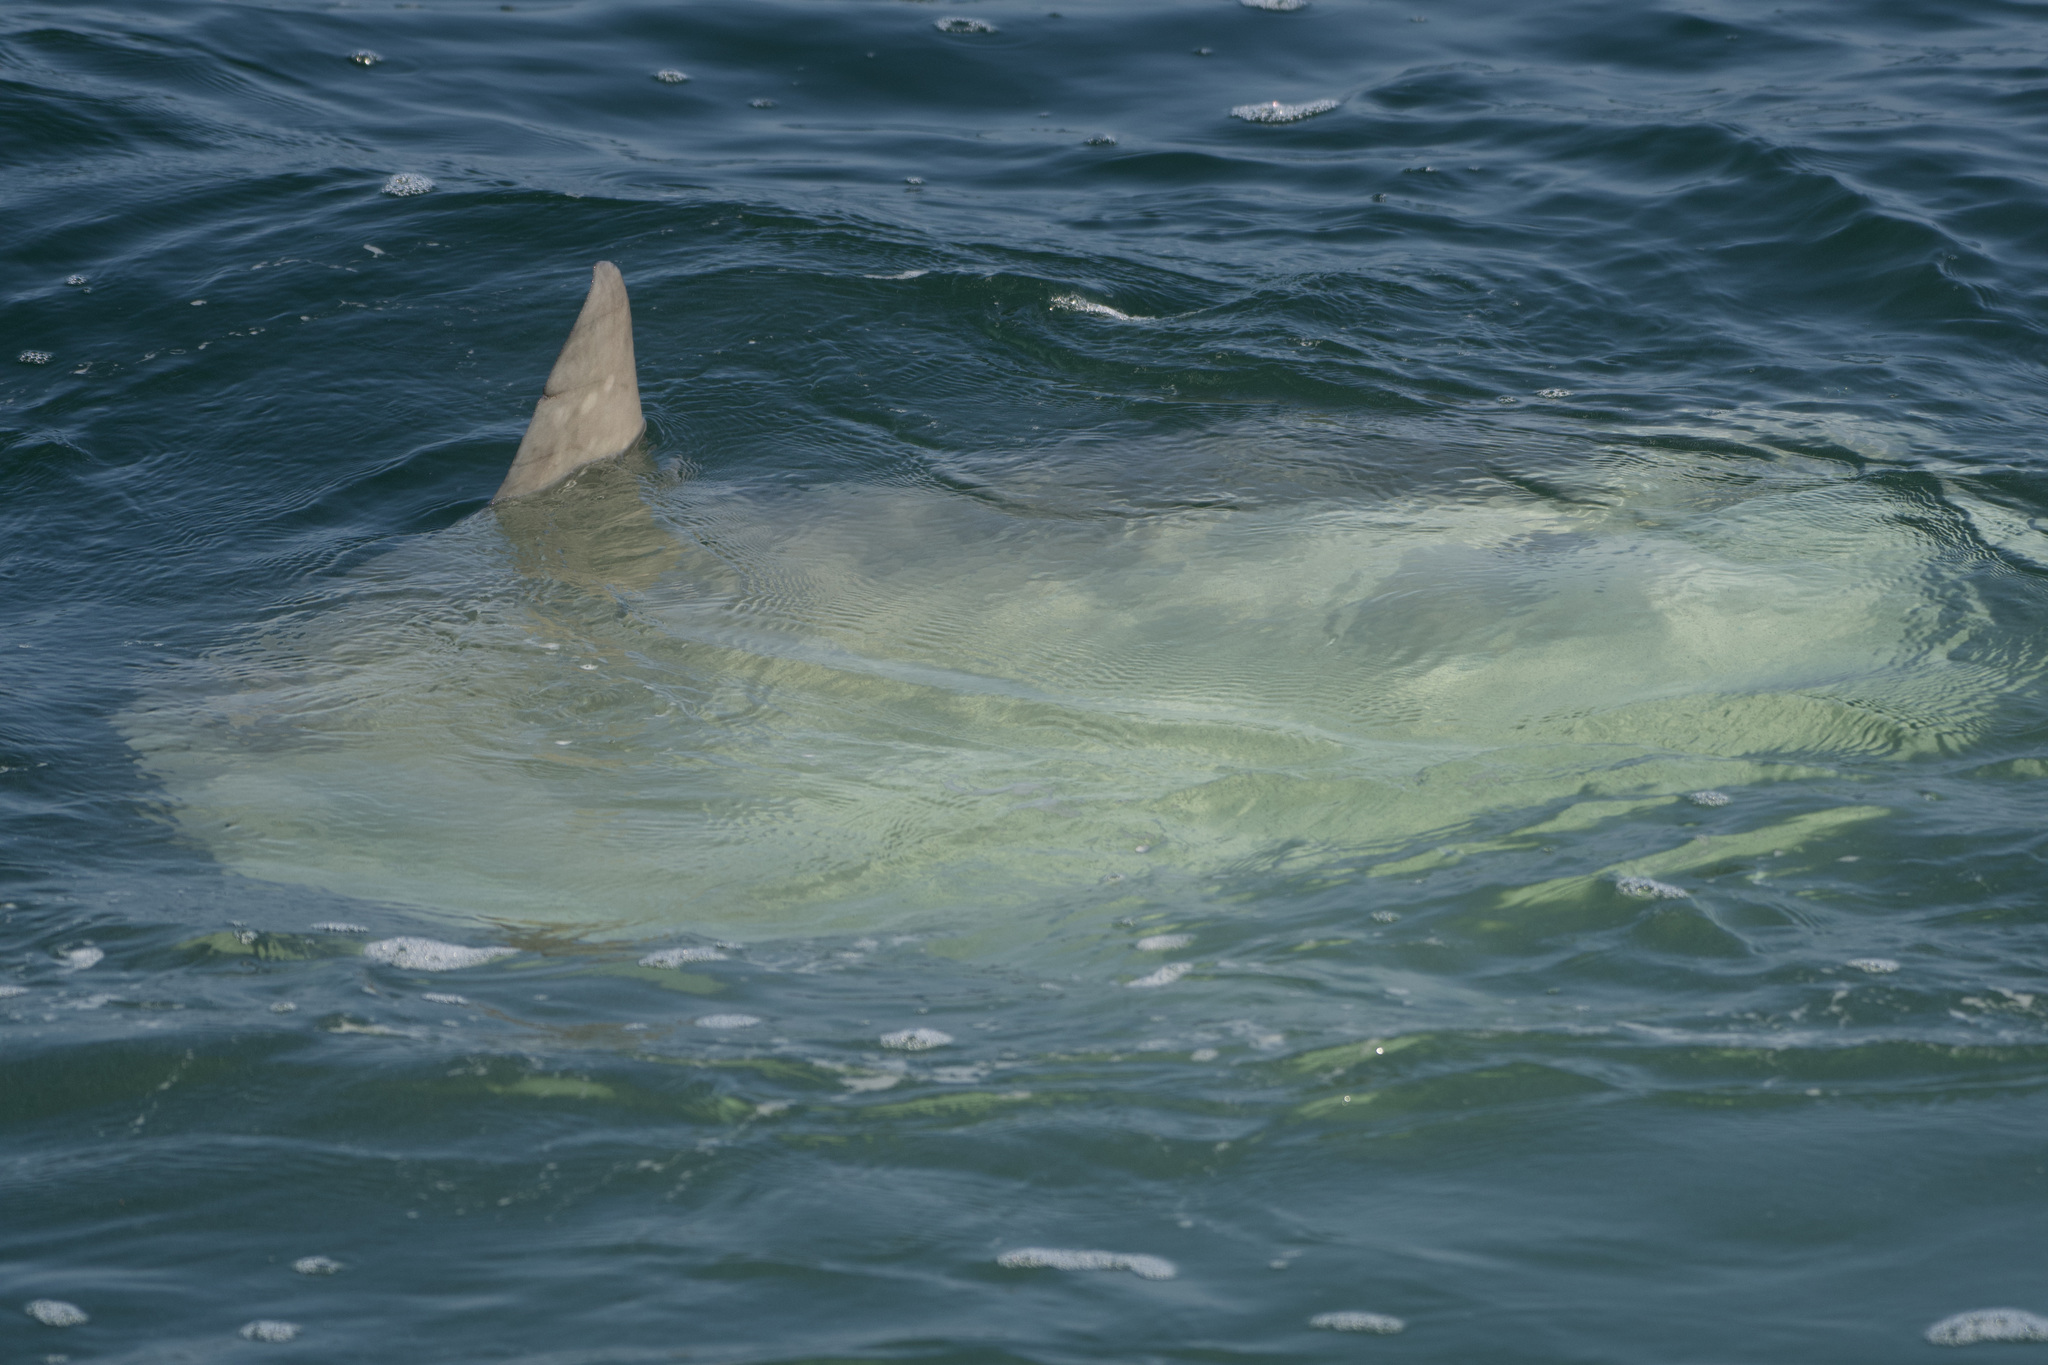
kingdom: Animalia
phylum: Chordata
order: Tetraodontiformes
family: Molidae
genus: Mola
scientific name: Mola mola
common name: Ocean sunfish
